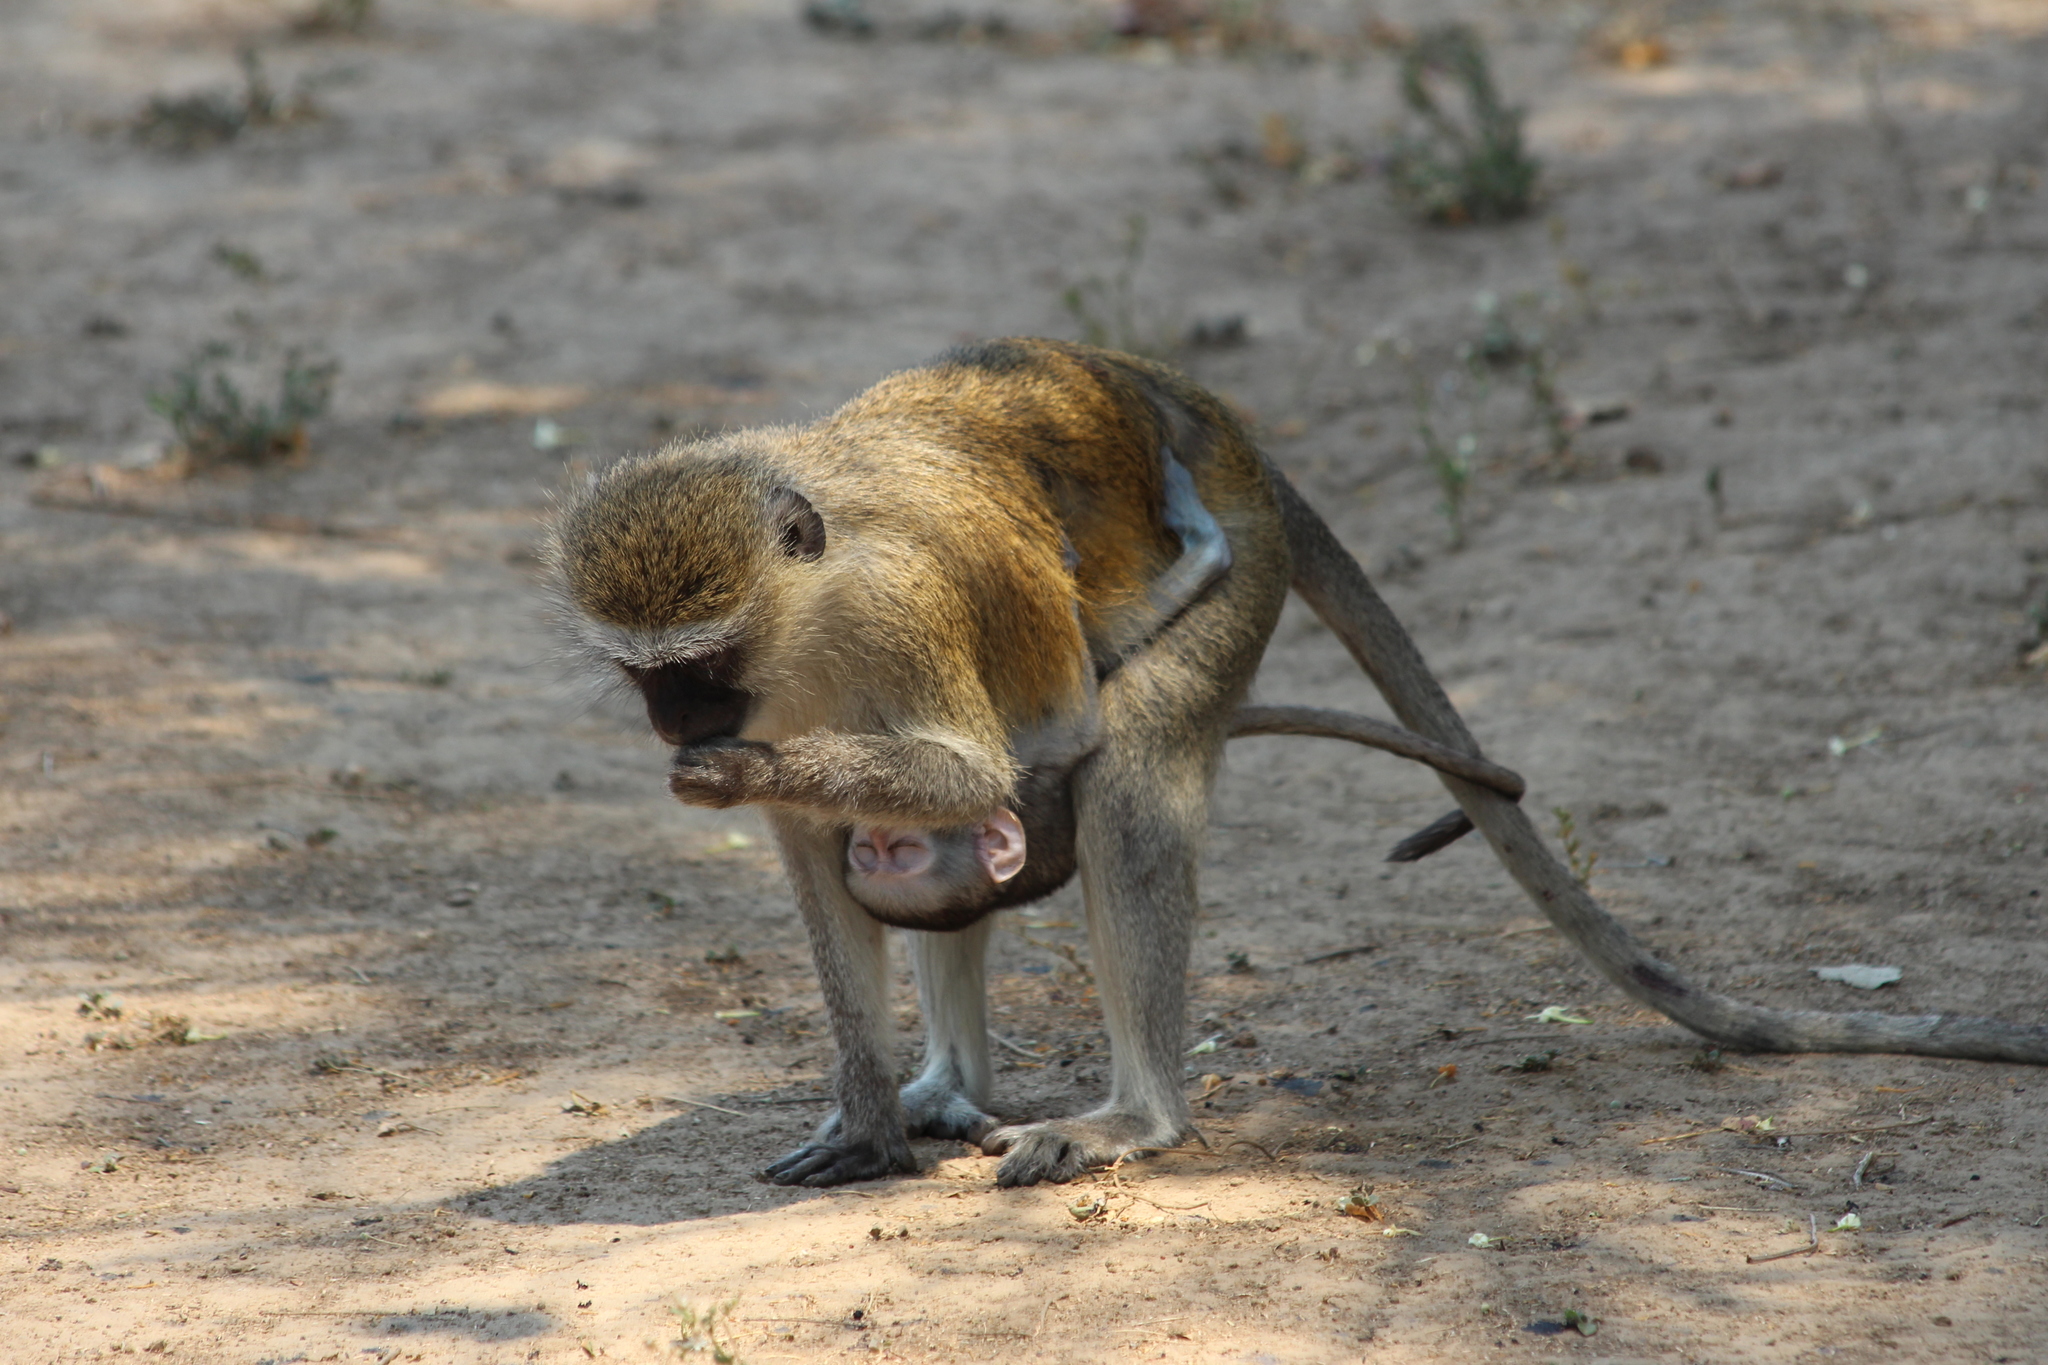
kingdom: Animalia
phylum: Chordata
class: Mammalia
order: Primates
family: Cercopithecidae
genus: Chlorocebus
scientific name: Chlorocebus pygerythrus
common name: Vervet monkey
